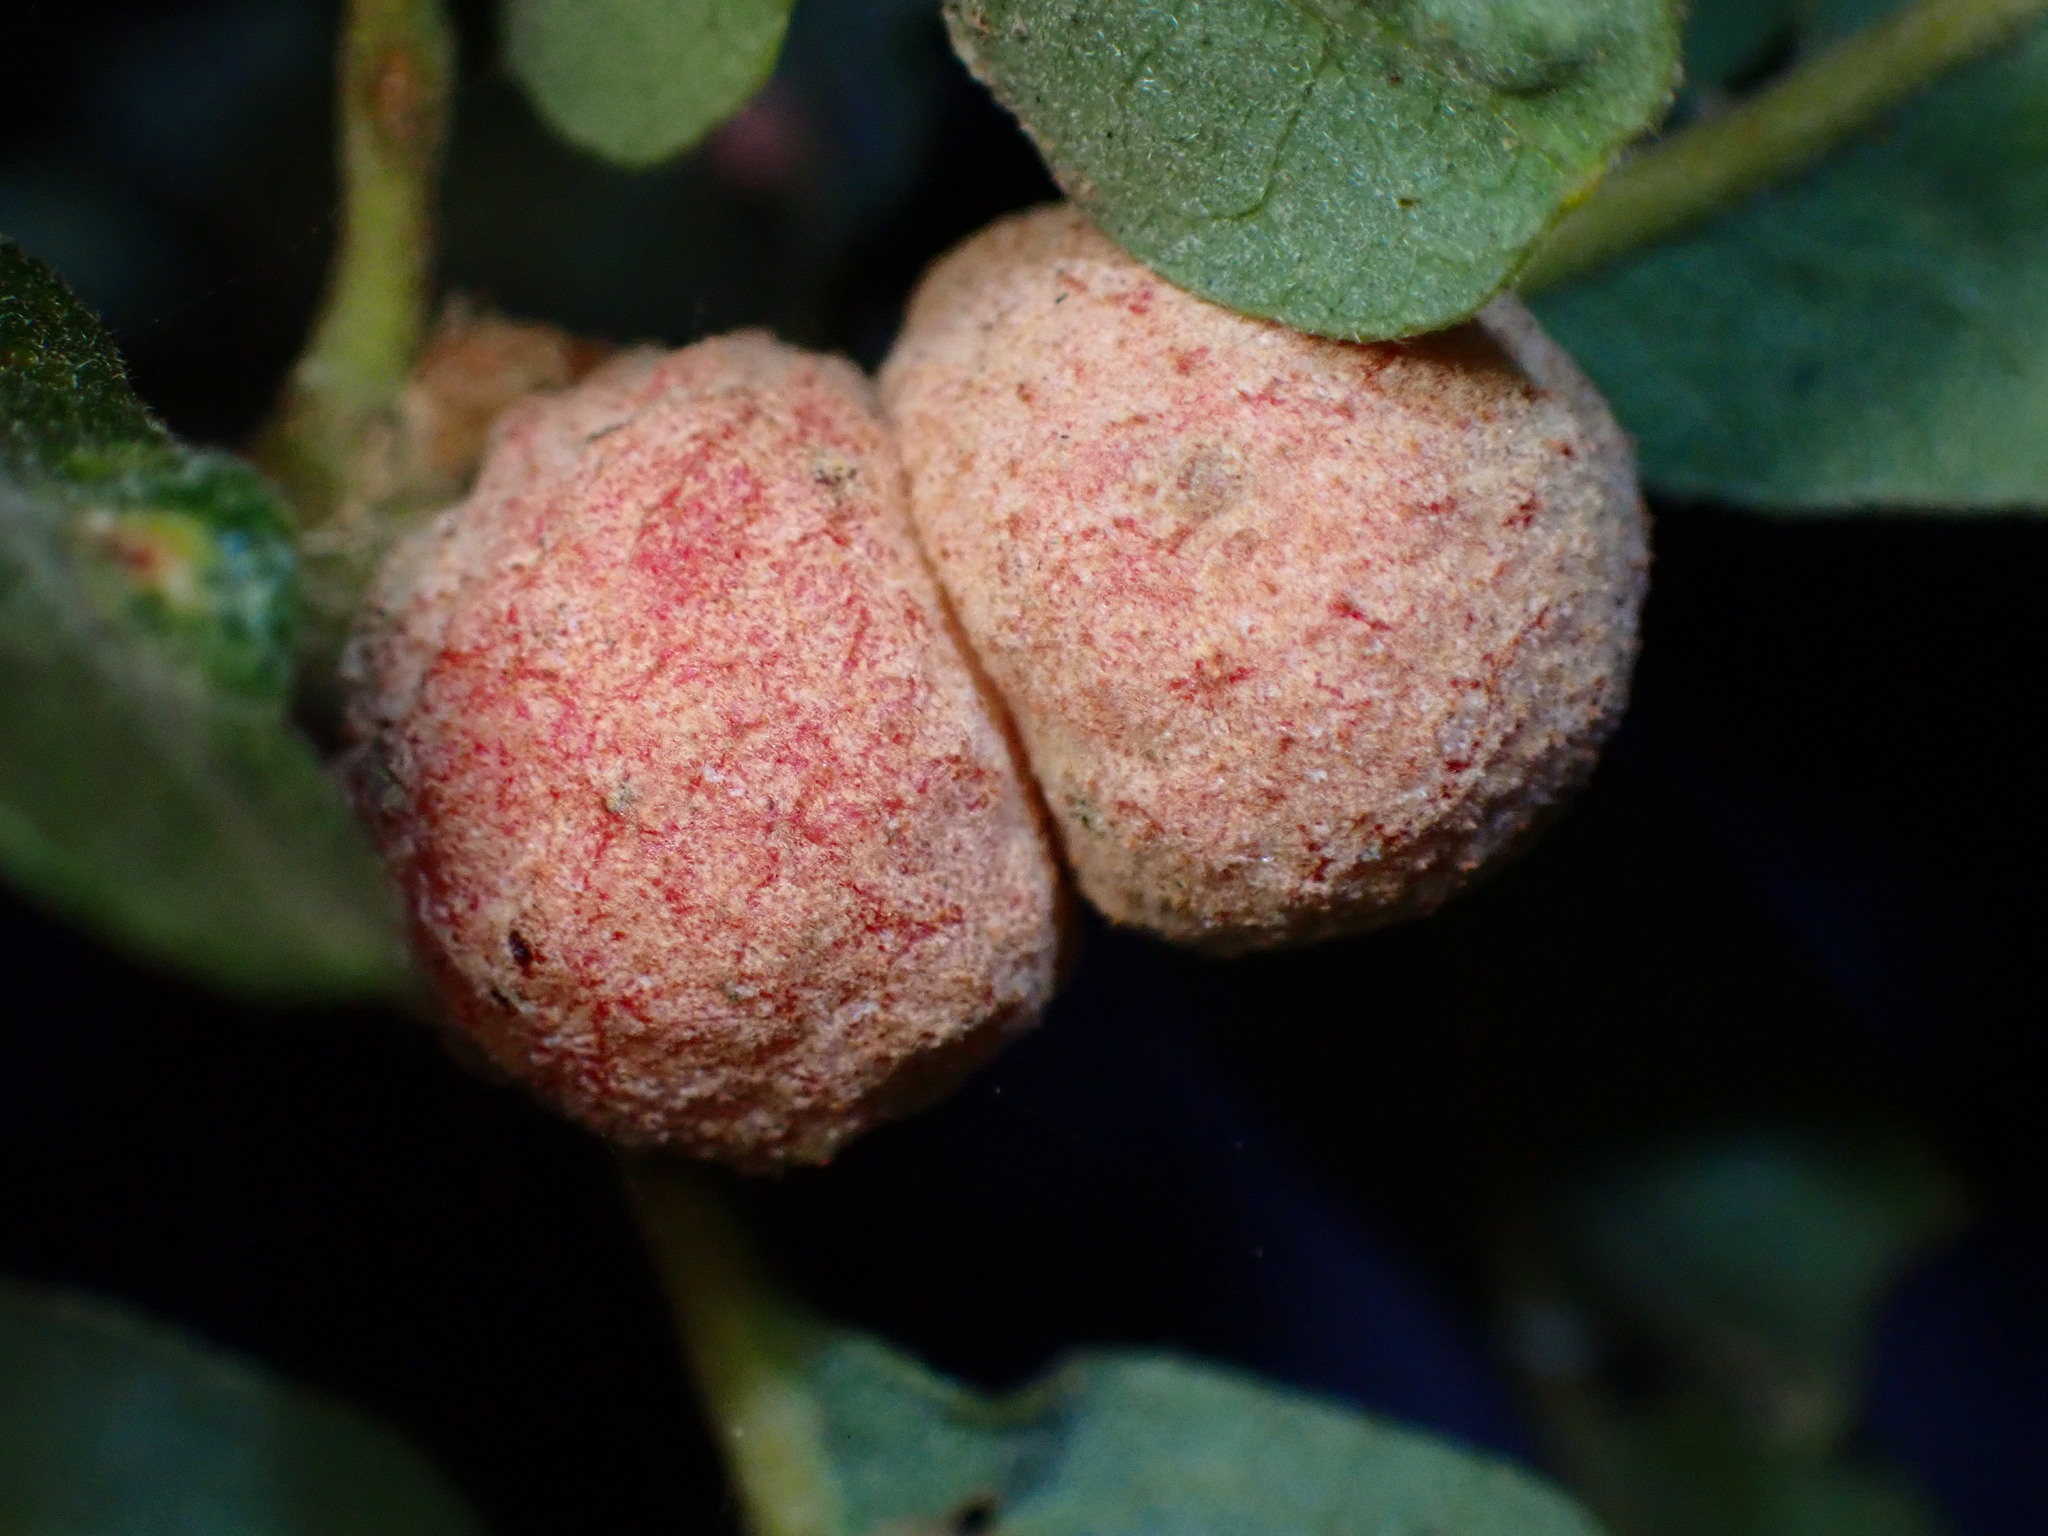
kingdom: Animalia
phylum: Arthropoda
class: Insecta
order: Hymenoptera
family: Cynipidae
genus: Cynips
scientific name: Cynips conspicua
